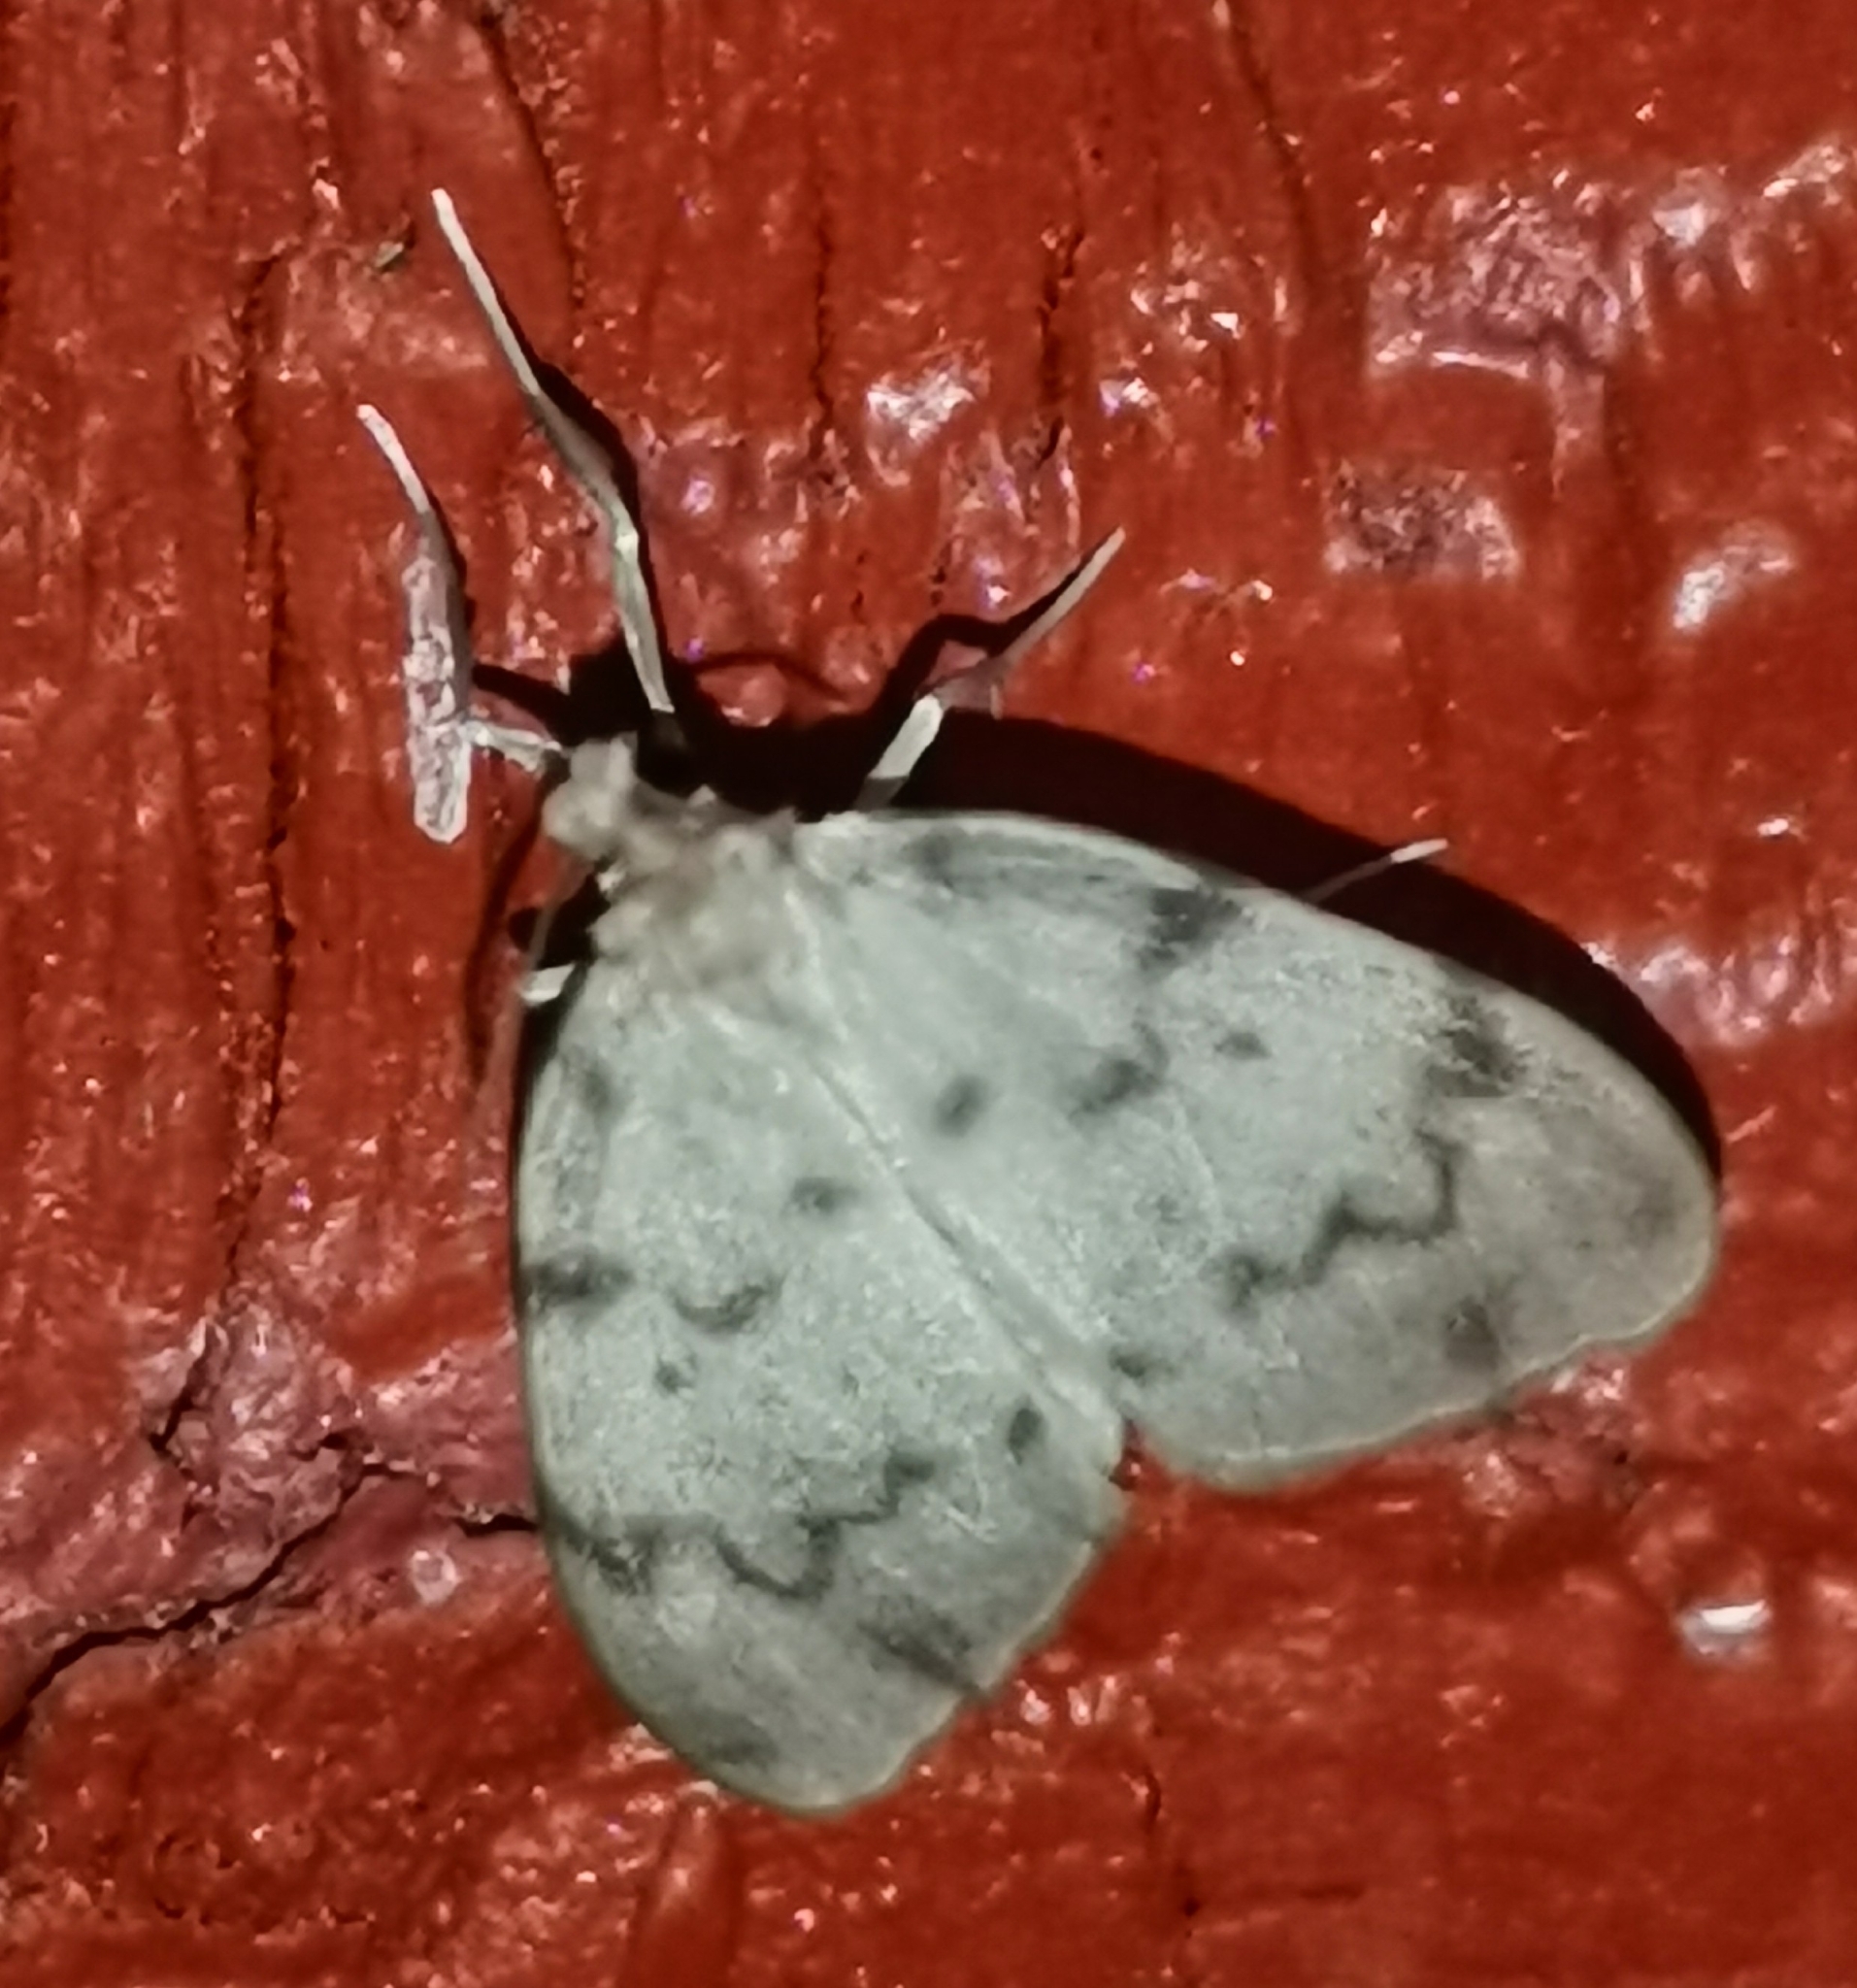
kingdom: Animalia
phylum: Arthropoda
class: Insecta
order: Lepidoptera
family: Erebidae
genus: Nudaria
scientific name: Nudaria mundana
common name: Muslin footman
